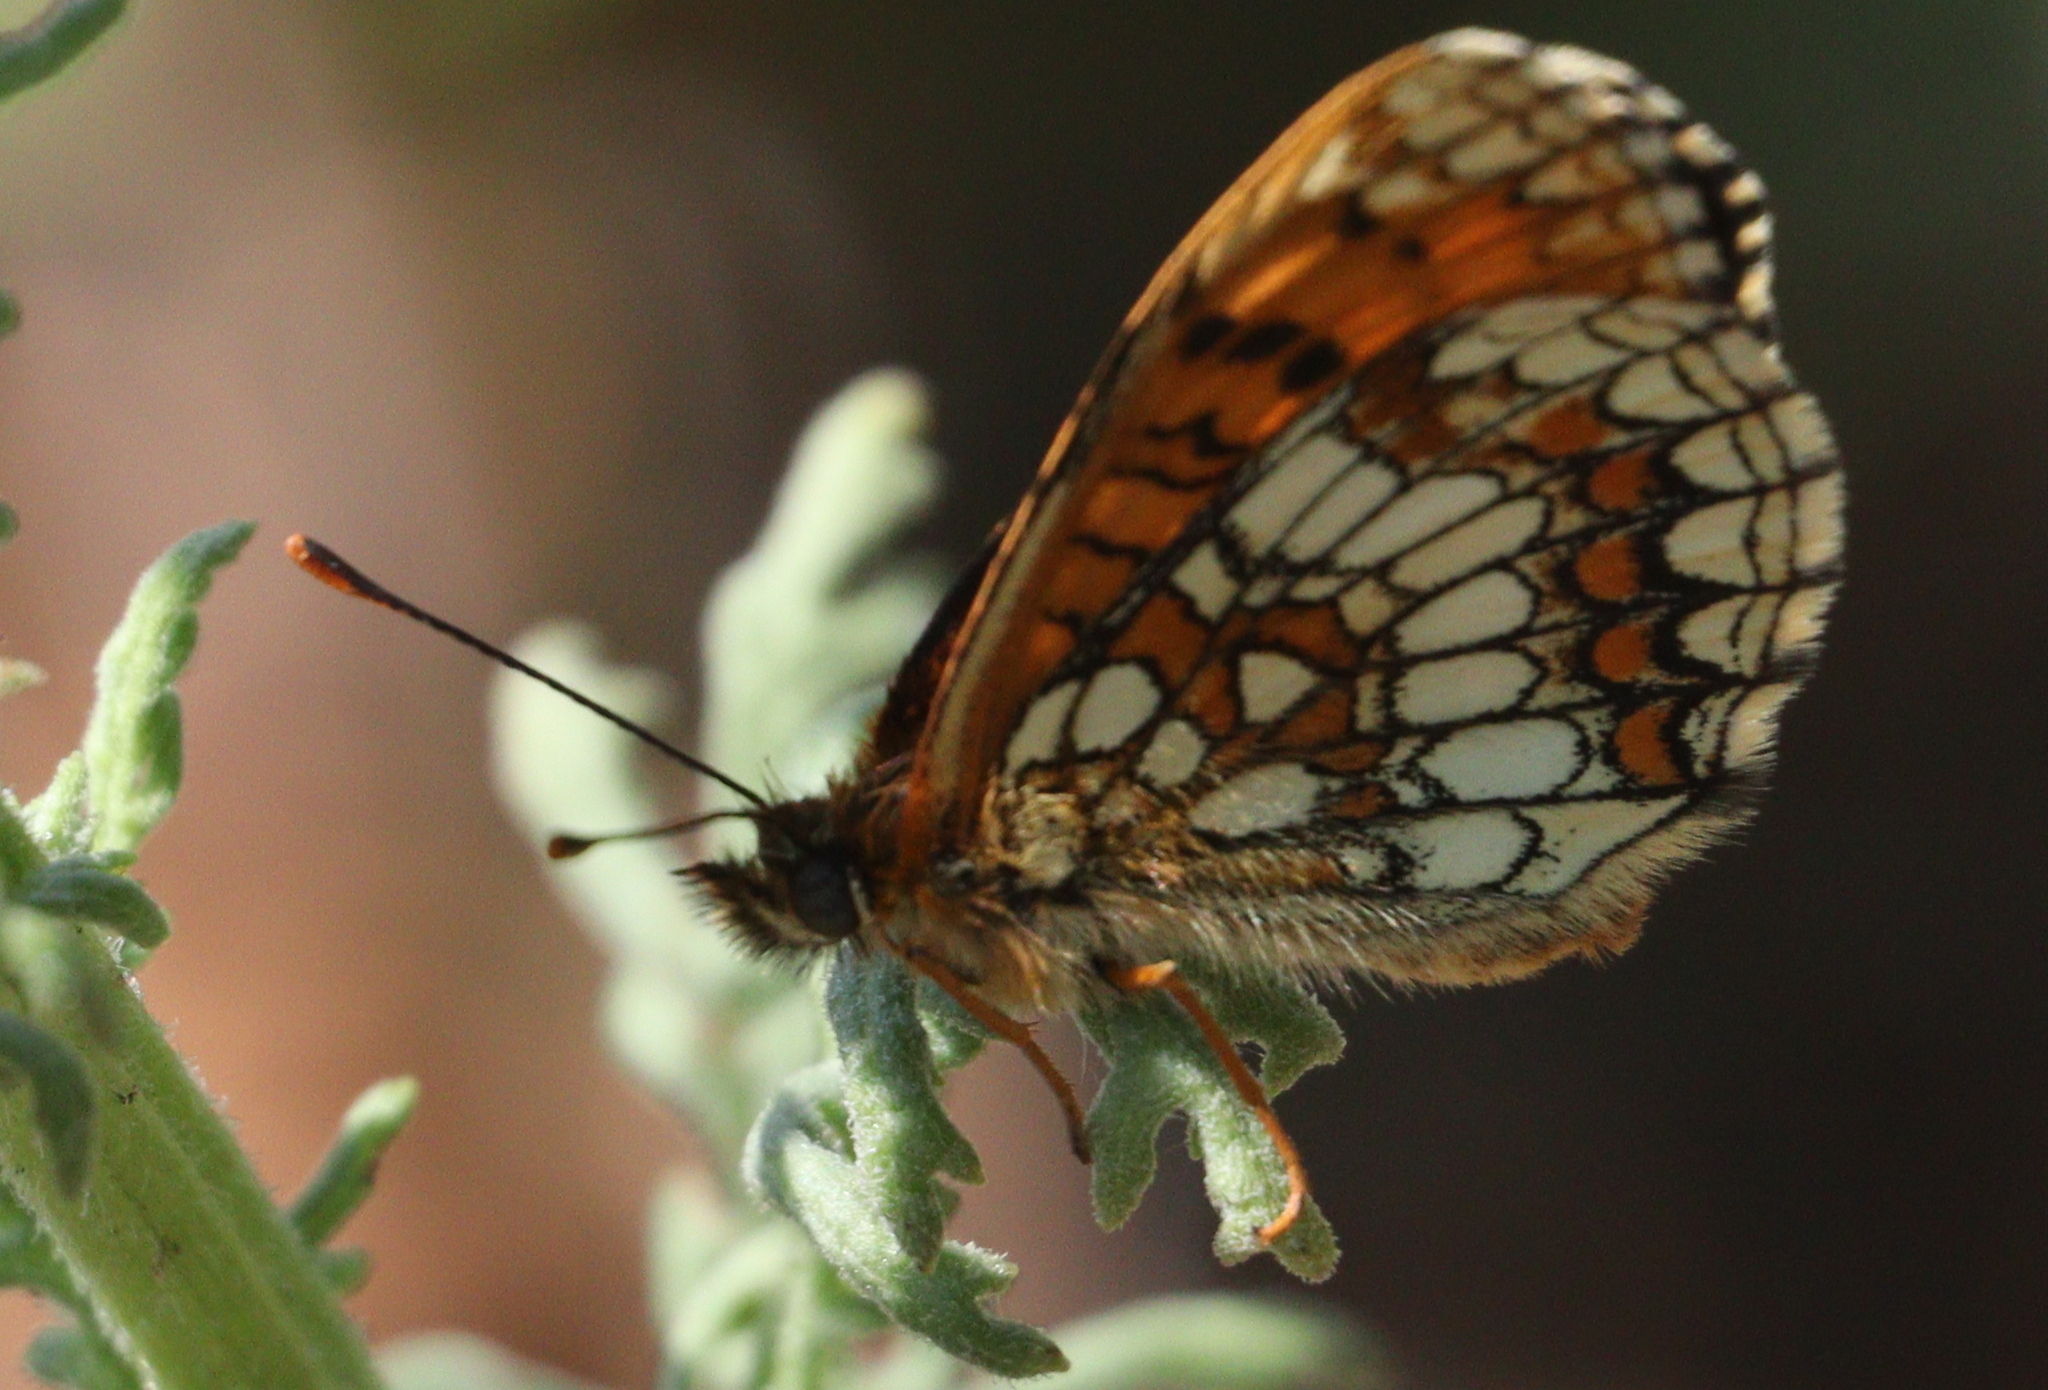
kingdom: Animalia
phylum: Arthropoda
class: Insecta
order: Lepidoptera
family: Nymphalidae
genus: Melitaea
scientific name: Melitaea athalia
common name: Heath fritillary
